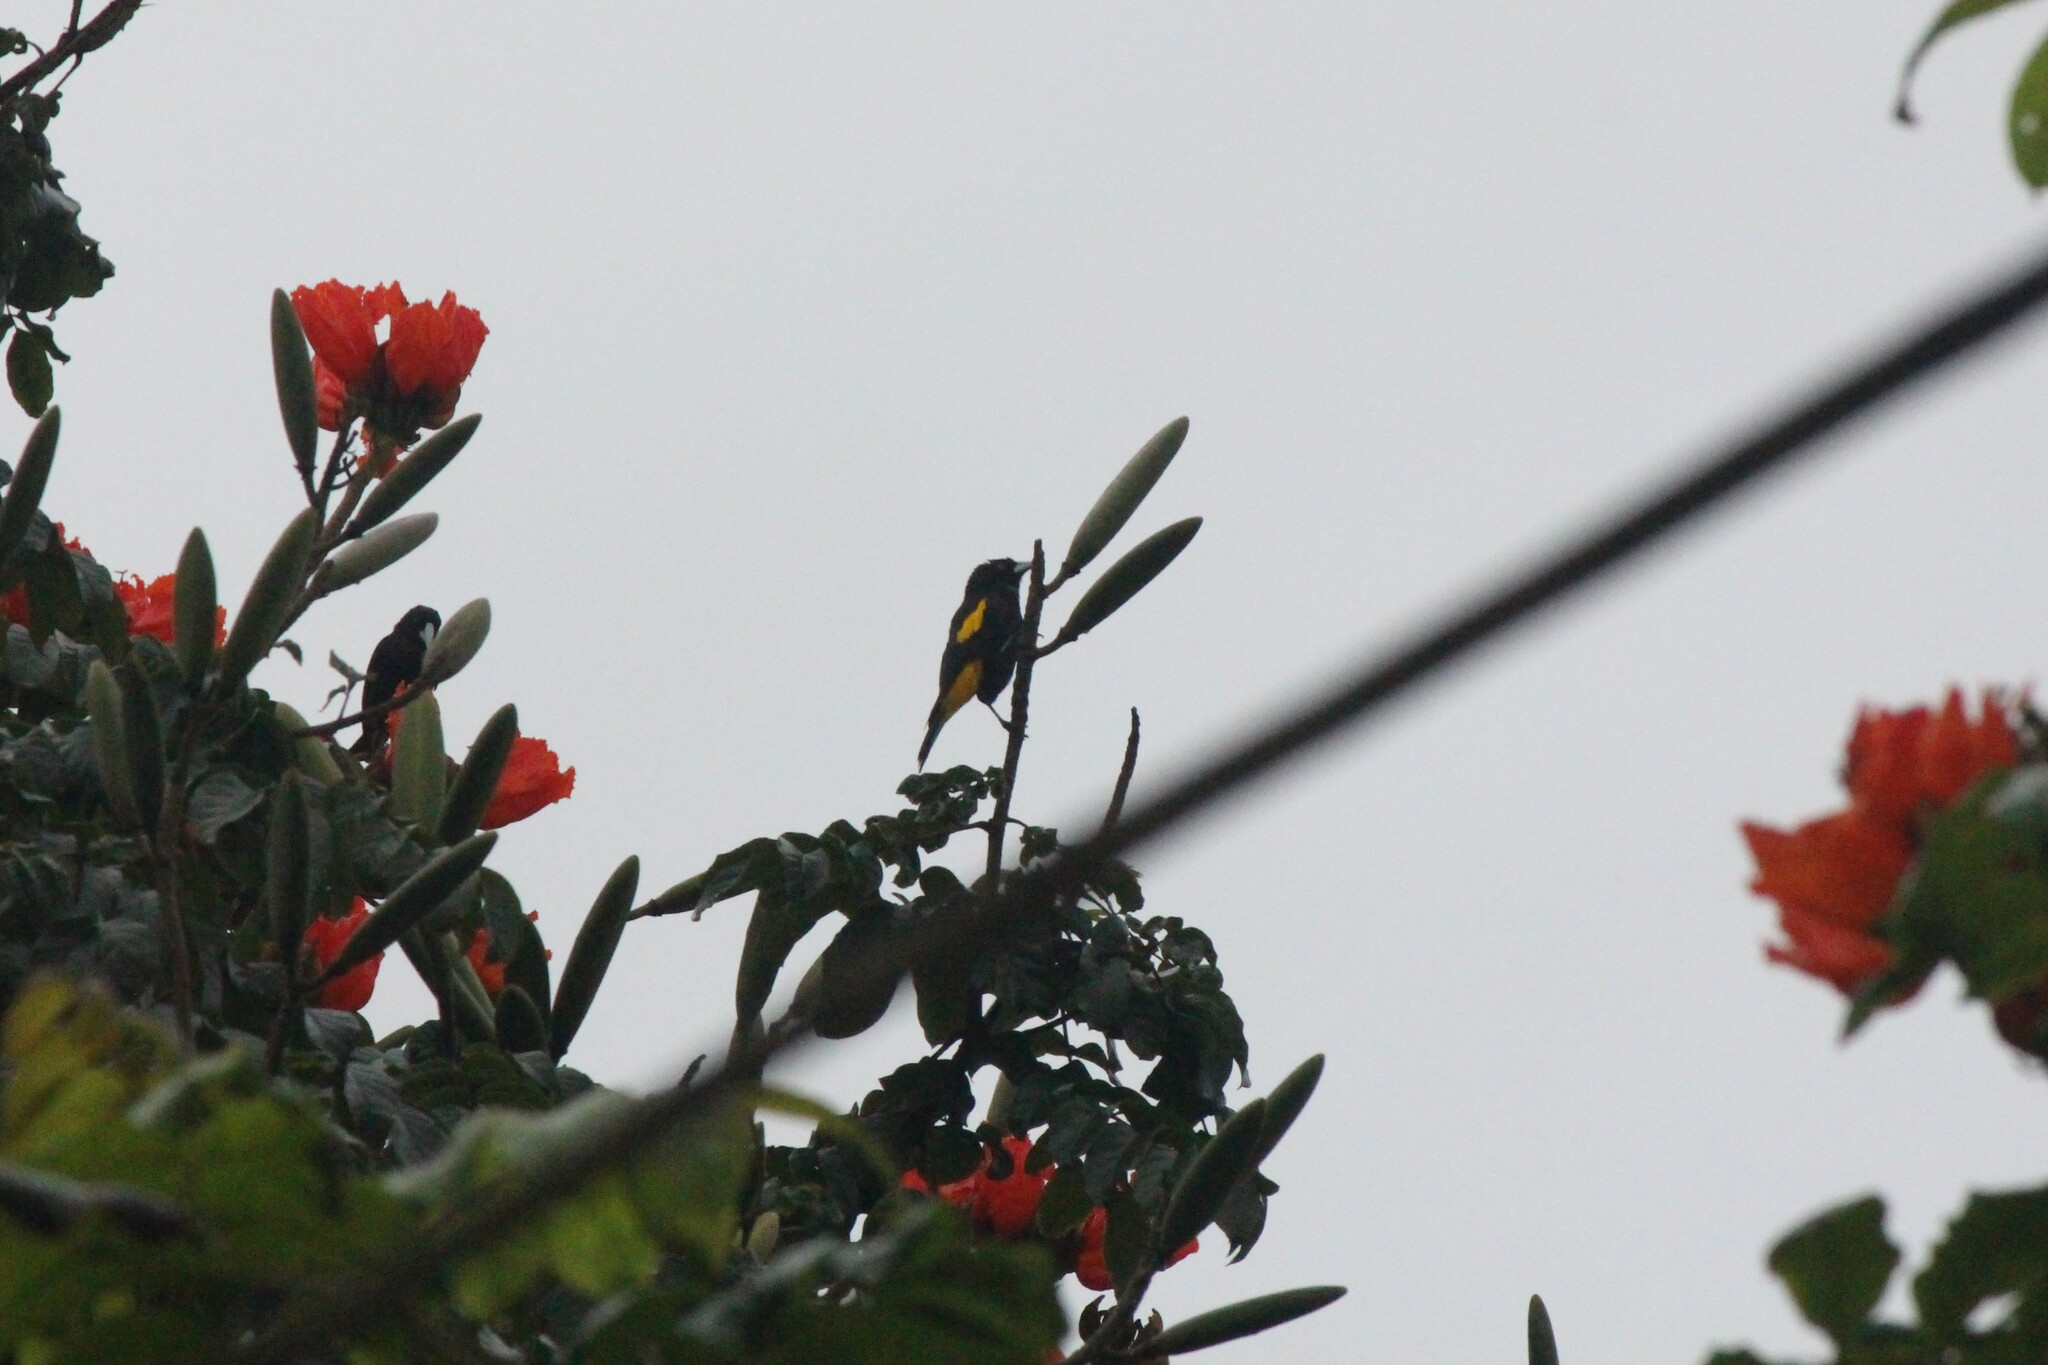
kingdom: Animalia
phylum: Chordata
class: Aves
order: Passeriformes
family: Icteridae
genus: Cacicus
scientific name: Cacicus cela
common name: Yellow-rumped cacique
